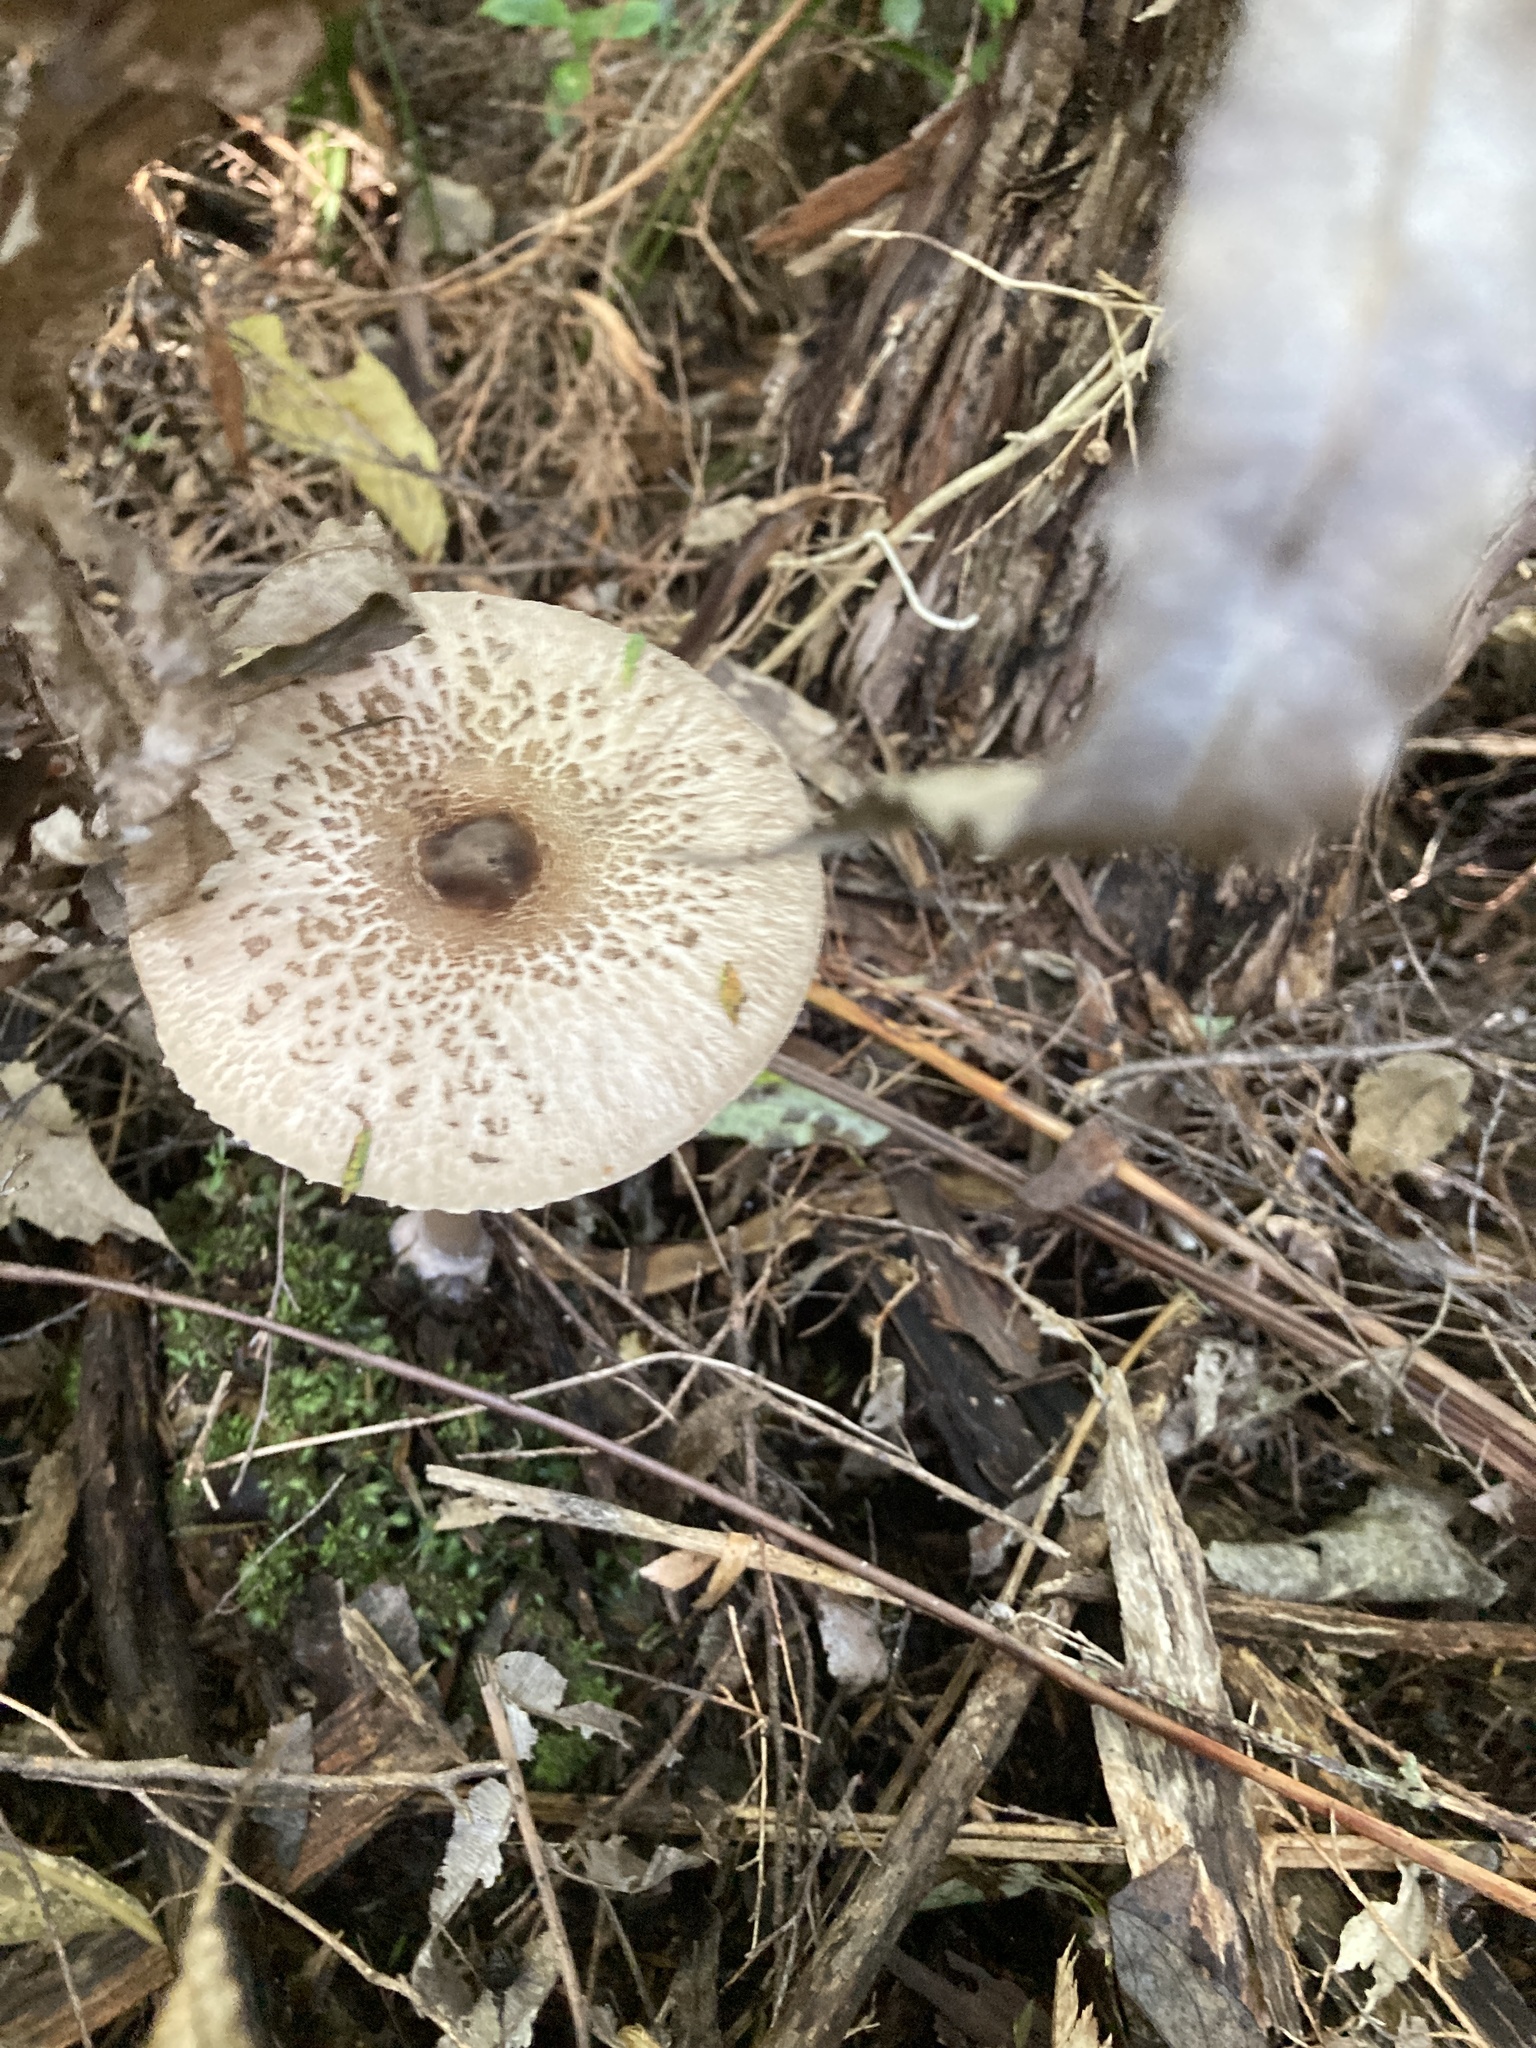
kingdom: Fungi
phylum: Basidiomycota
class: Agaricomycetes
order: Agaricales
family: Agaricaceae
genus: Macrolepiota
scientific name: Macrolepiota clelandii
